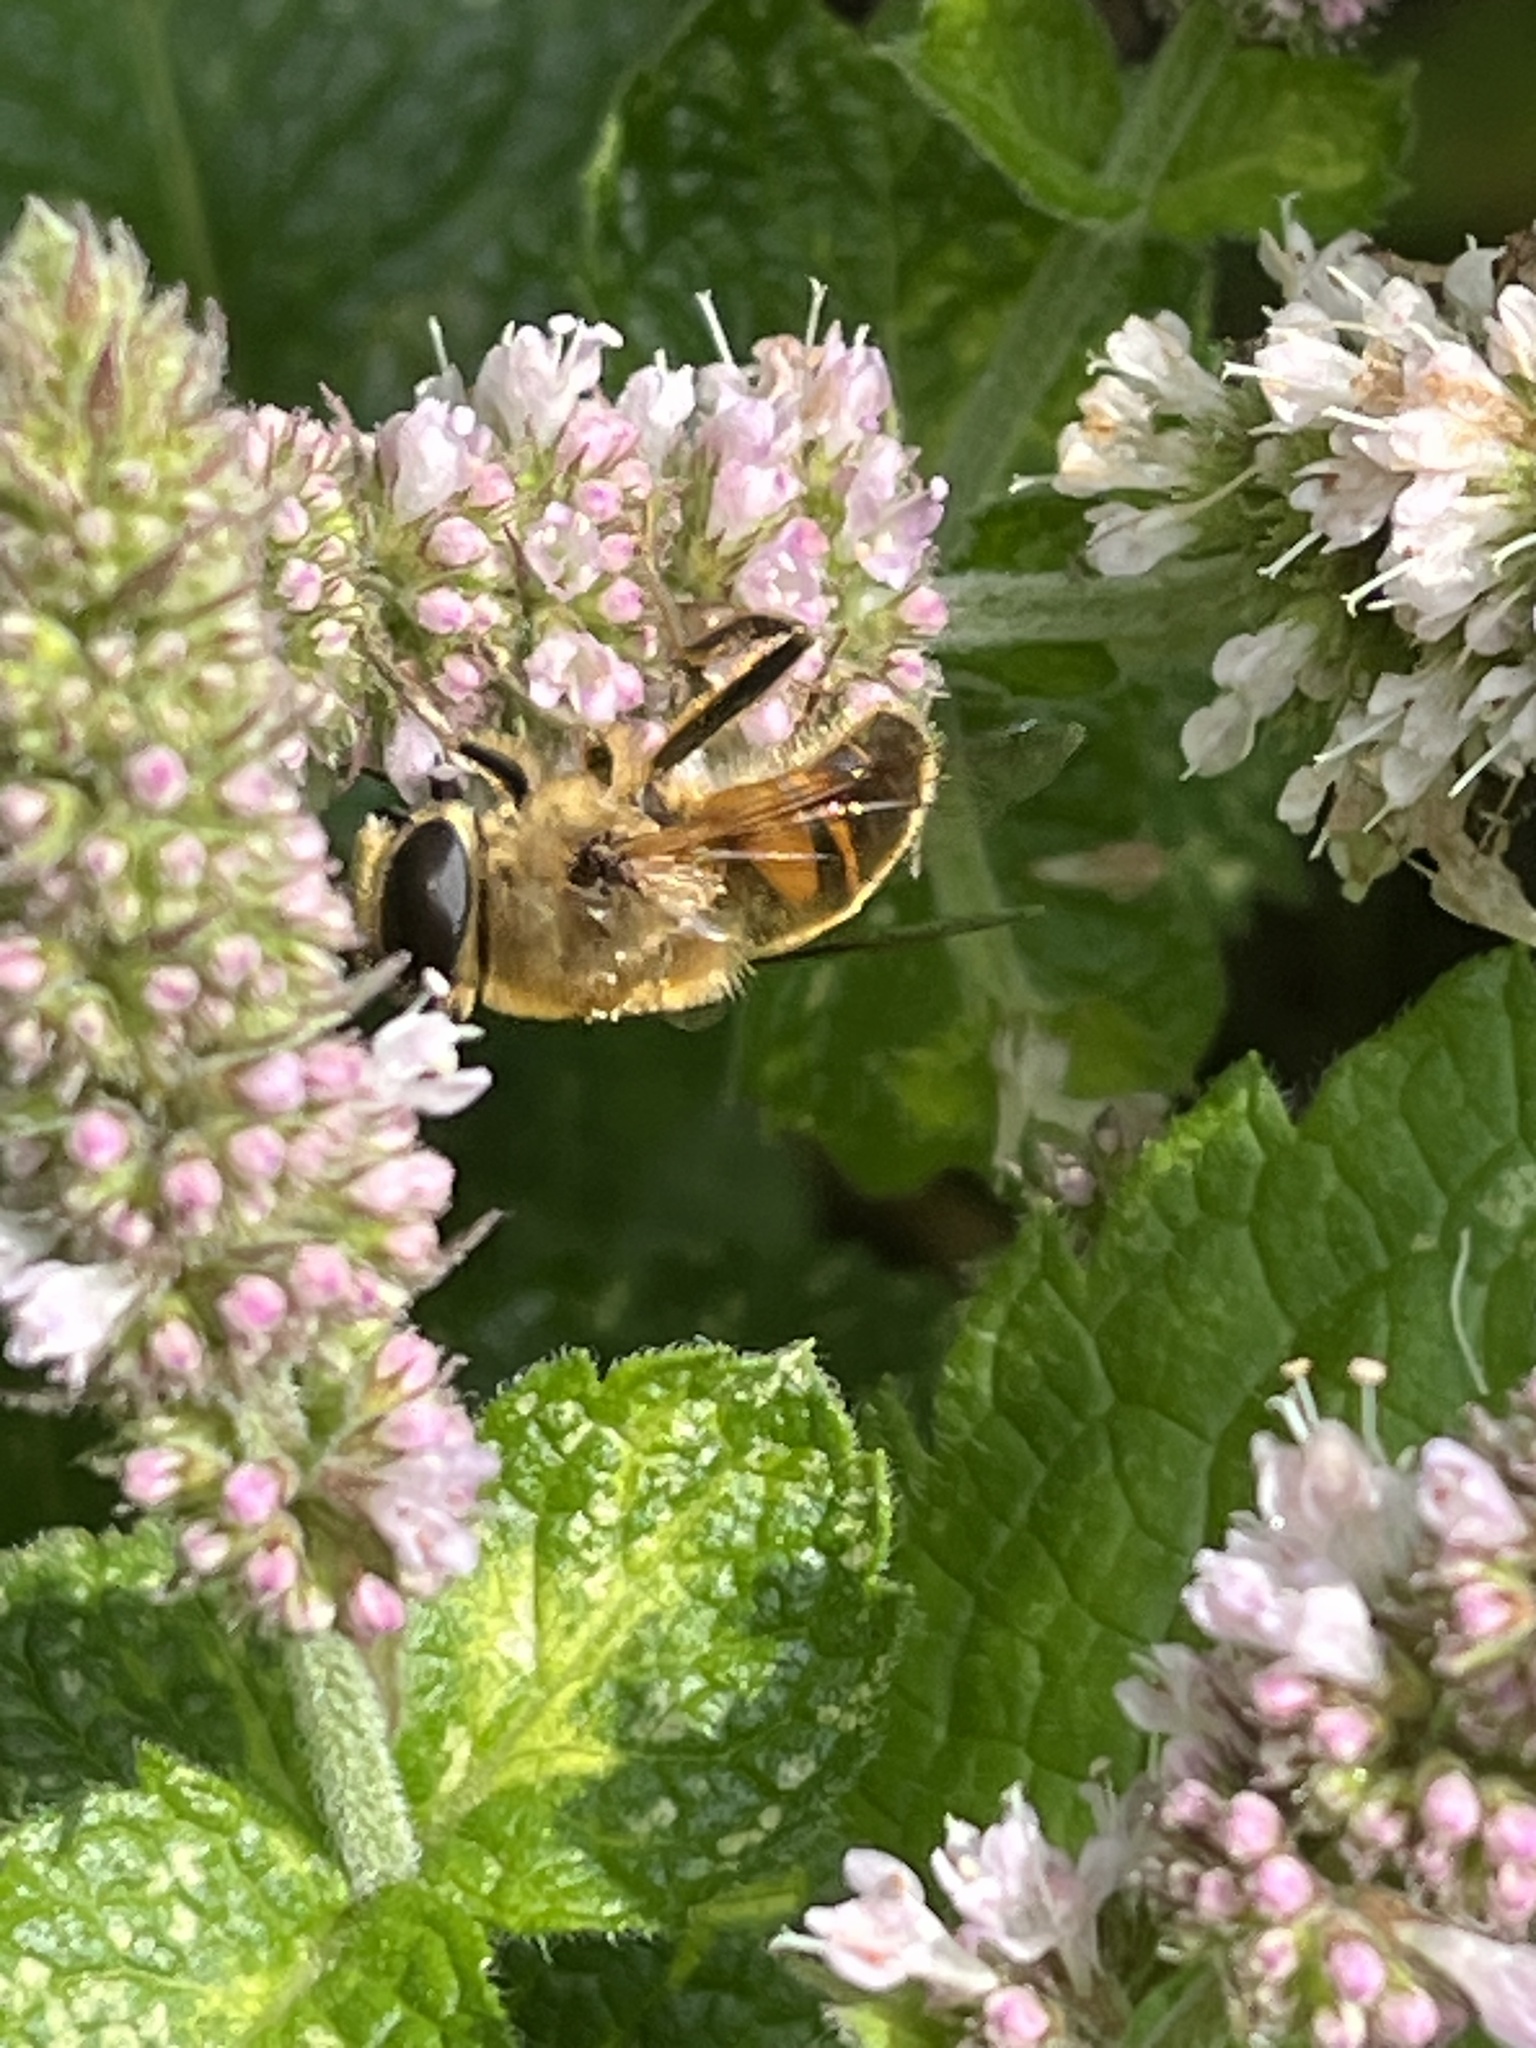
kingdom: Animalia
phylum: Arthropoda
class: Insecta
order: Diptera
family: Syrphidae
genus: Eristalis
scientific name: Eristalis tenax
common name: Drone fly
